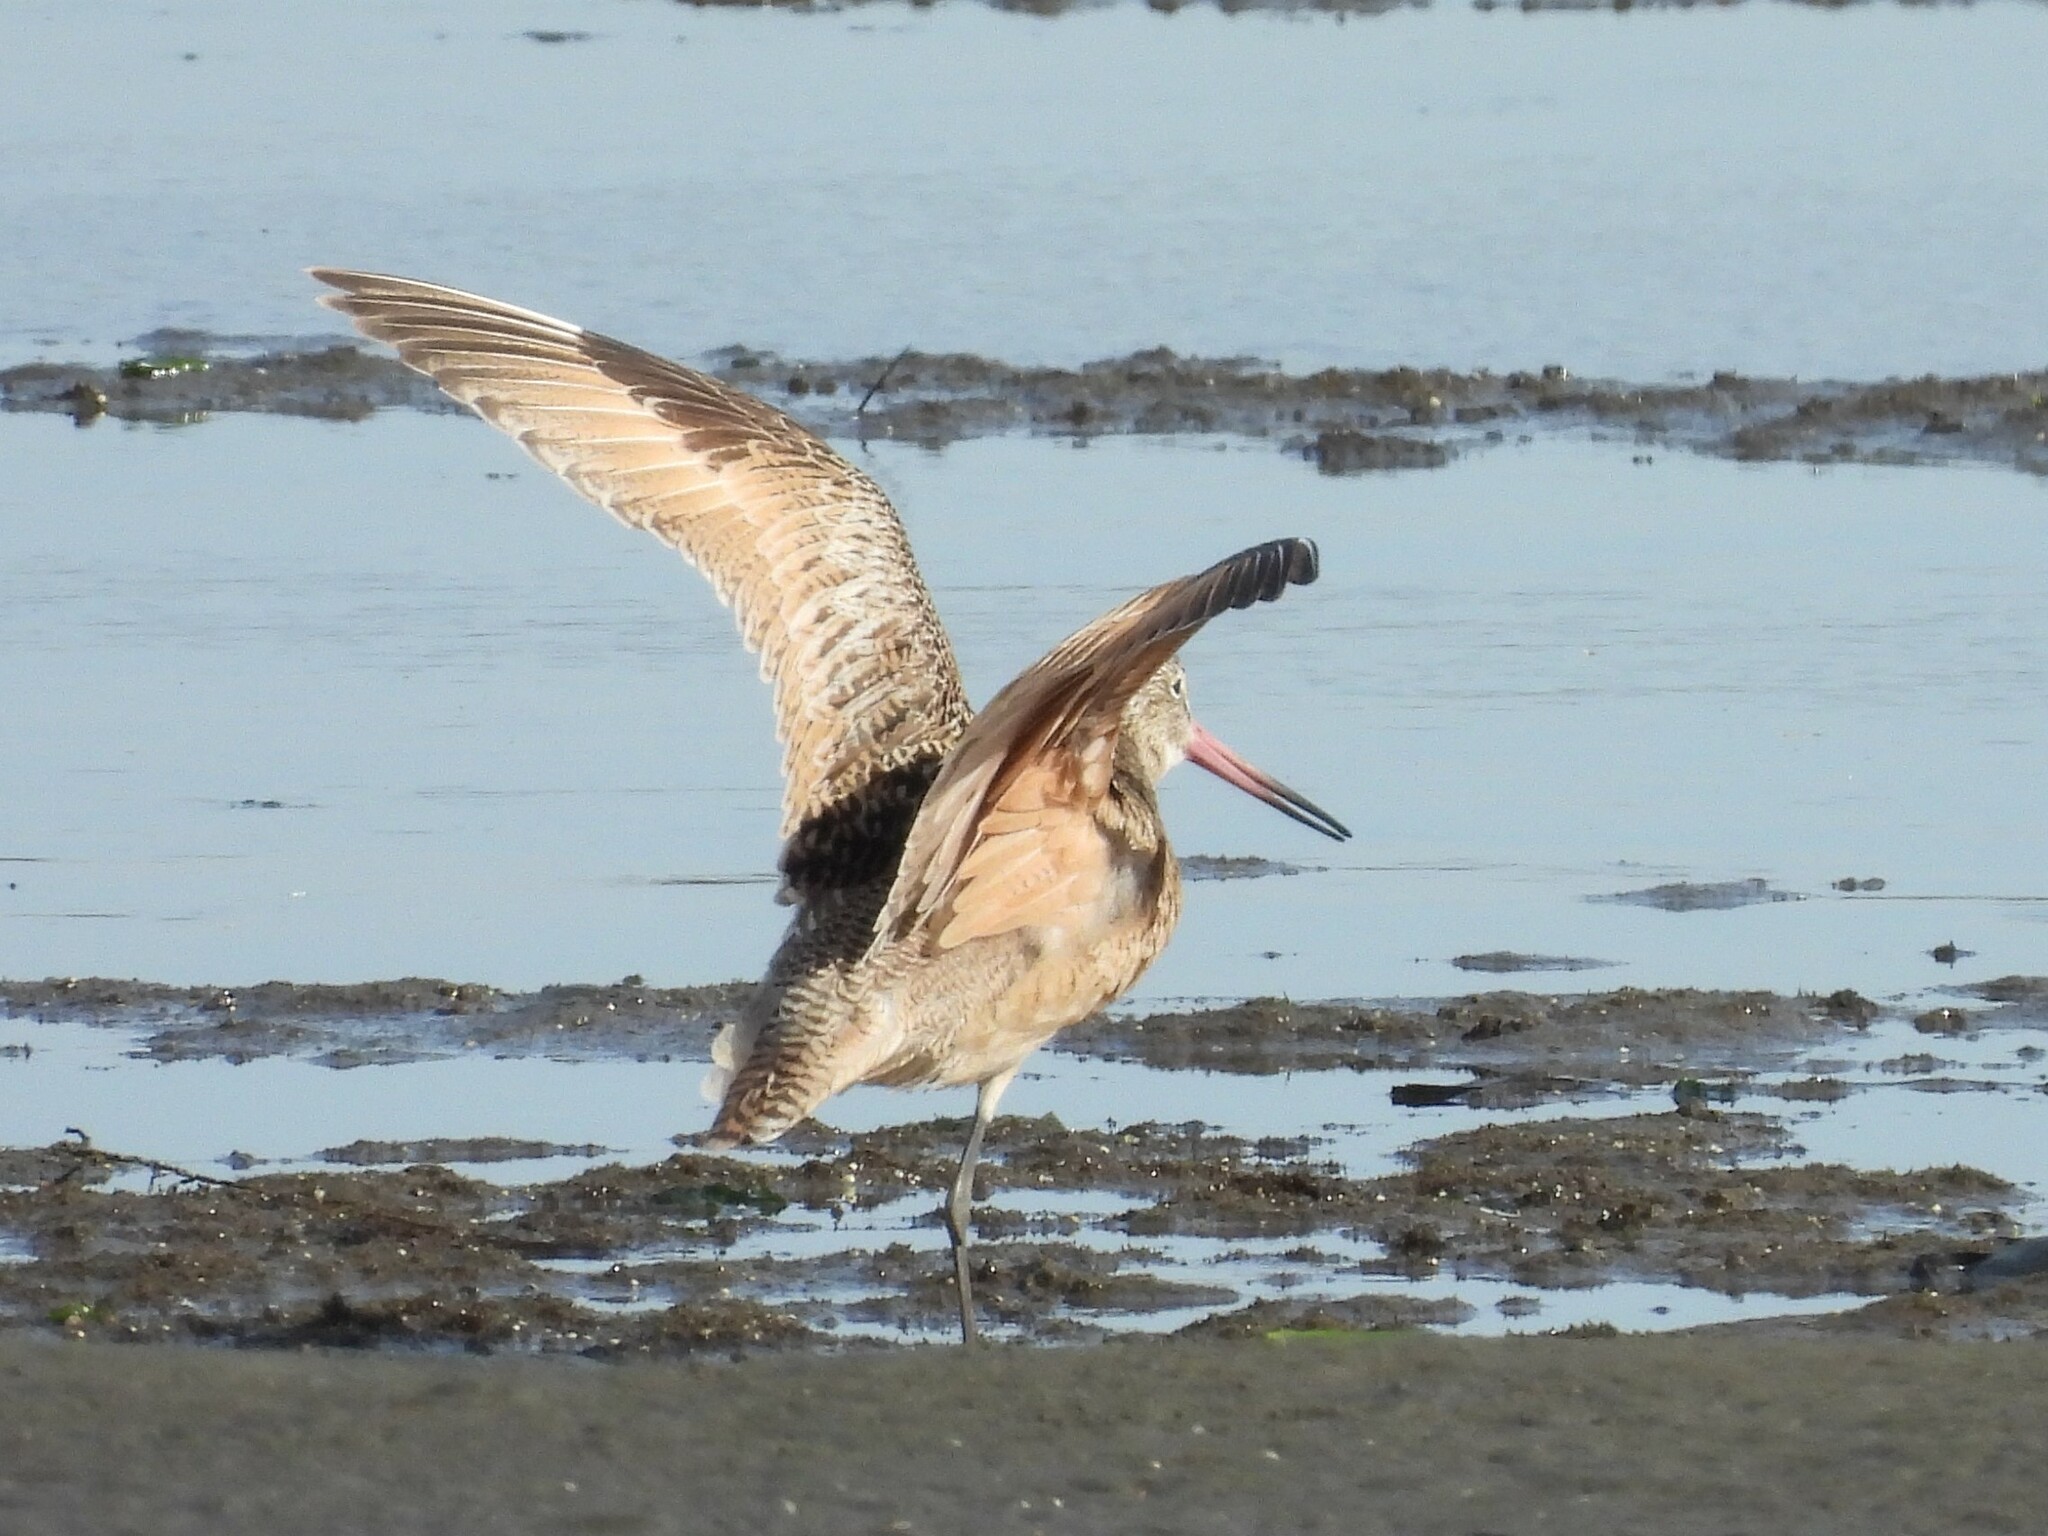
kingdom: Animalia
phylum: Chordata
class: Aves
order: Charadriiformes
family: Scolopacidae
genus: Limosa
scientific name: Limosa fedoa
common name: Marbled godwit
